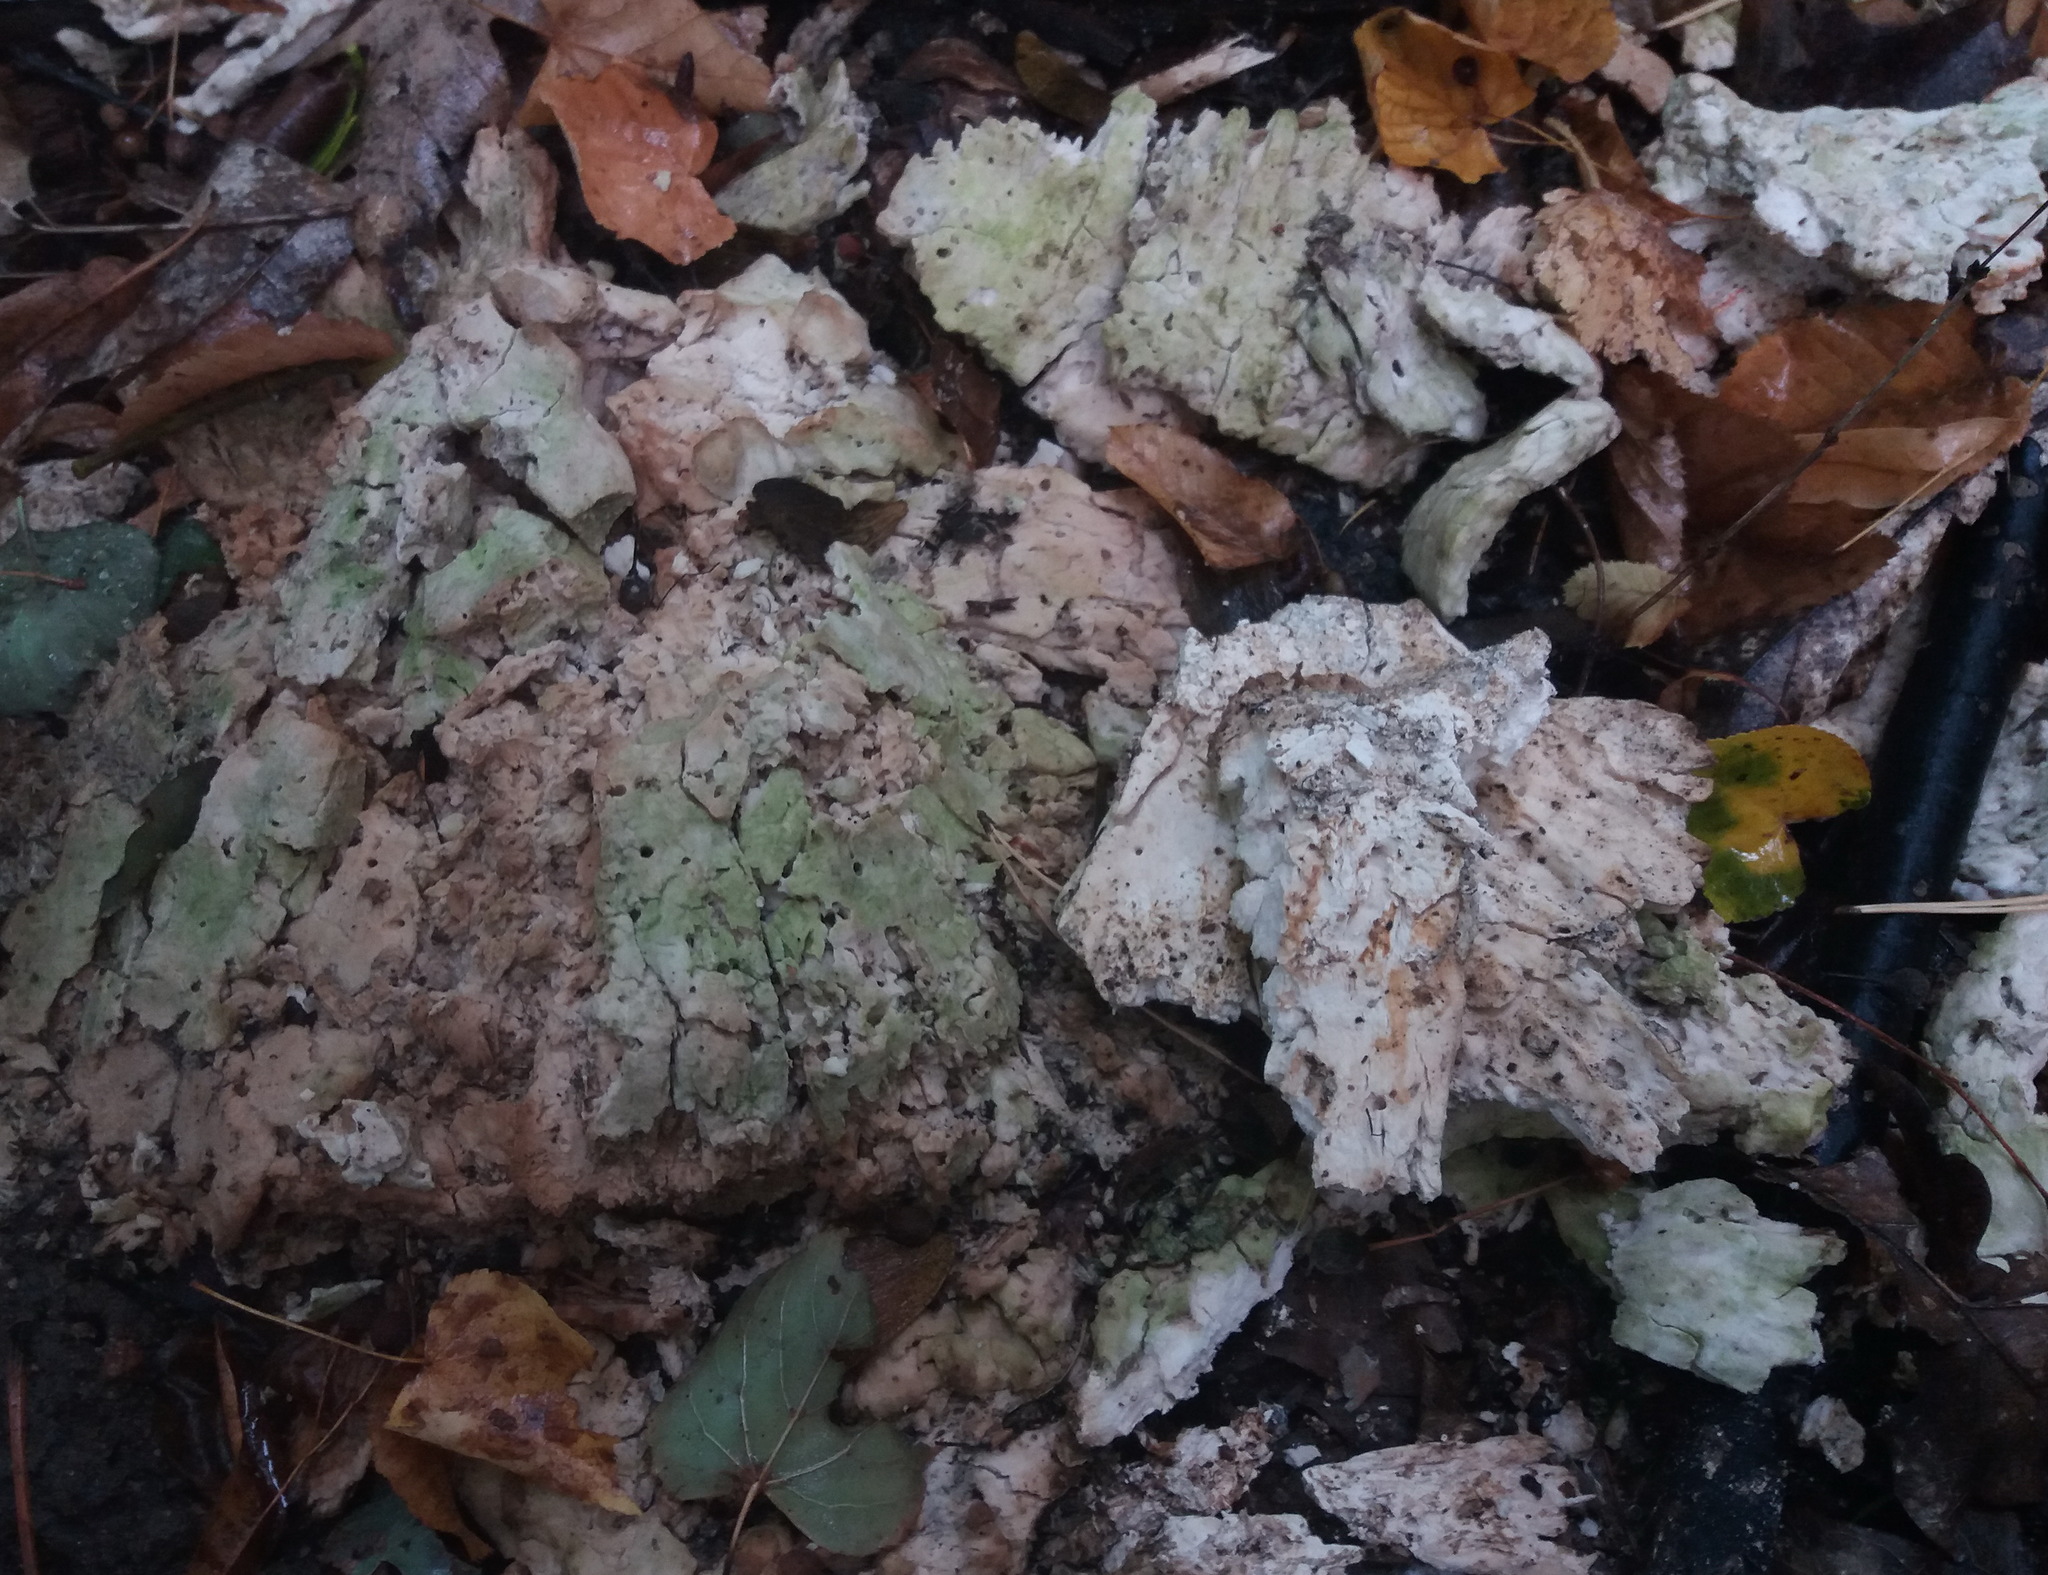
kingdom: Fungi
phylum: Basidiomycota
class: Agaricomycetes
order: Polyporales
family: Laetiporaceae
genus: Laetiporus
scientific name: Laetiporus sulphureus
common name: Chicken of the woods
